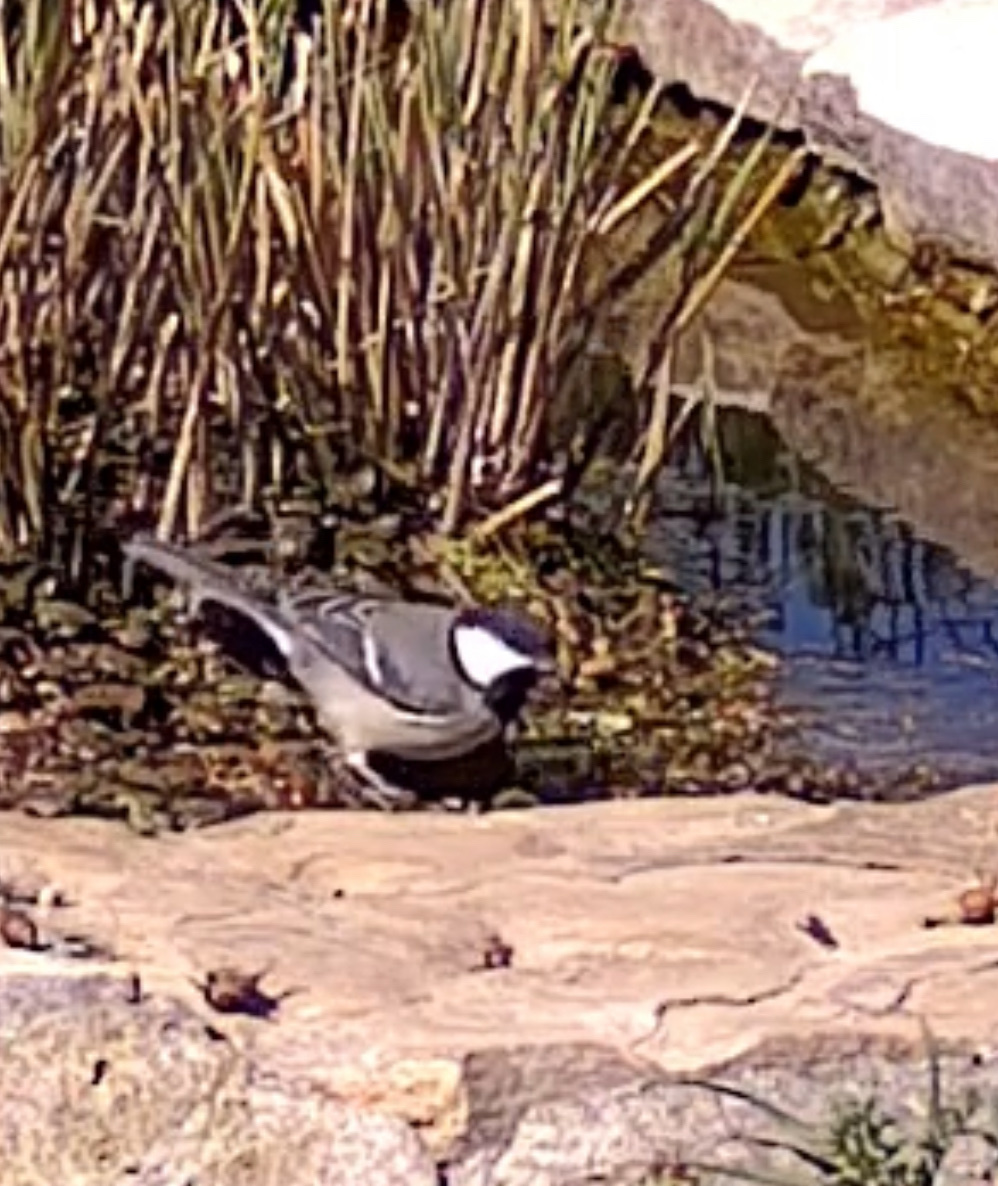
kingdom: Animalia
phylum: Chordata
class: Aves
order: Passeriformes
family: Paridae
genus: Parus
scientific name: Parus major
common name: Great tit
